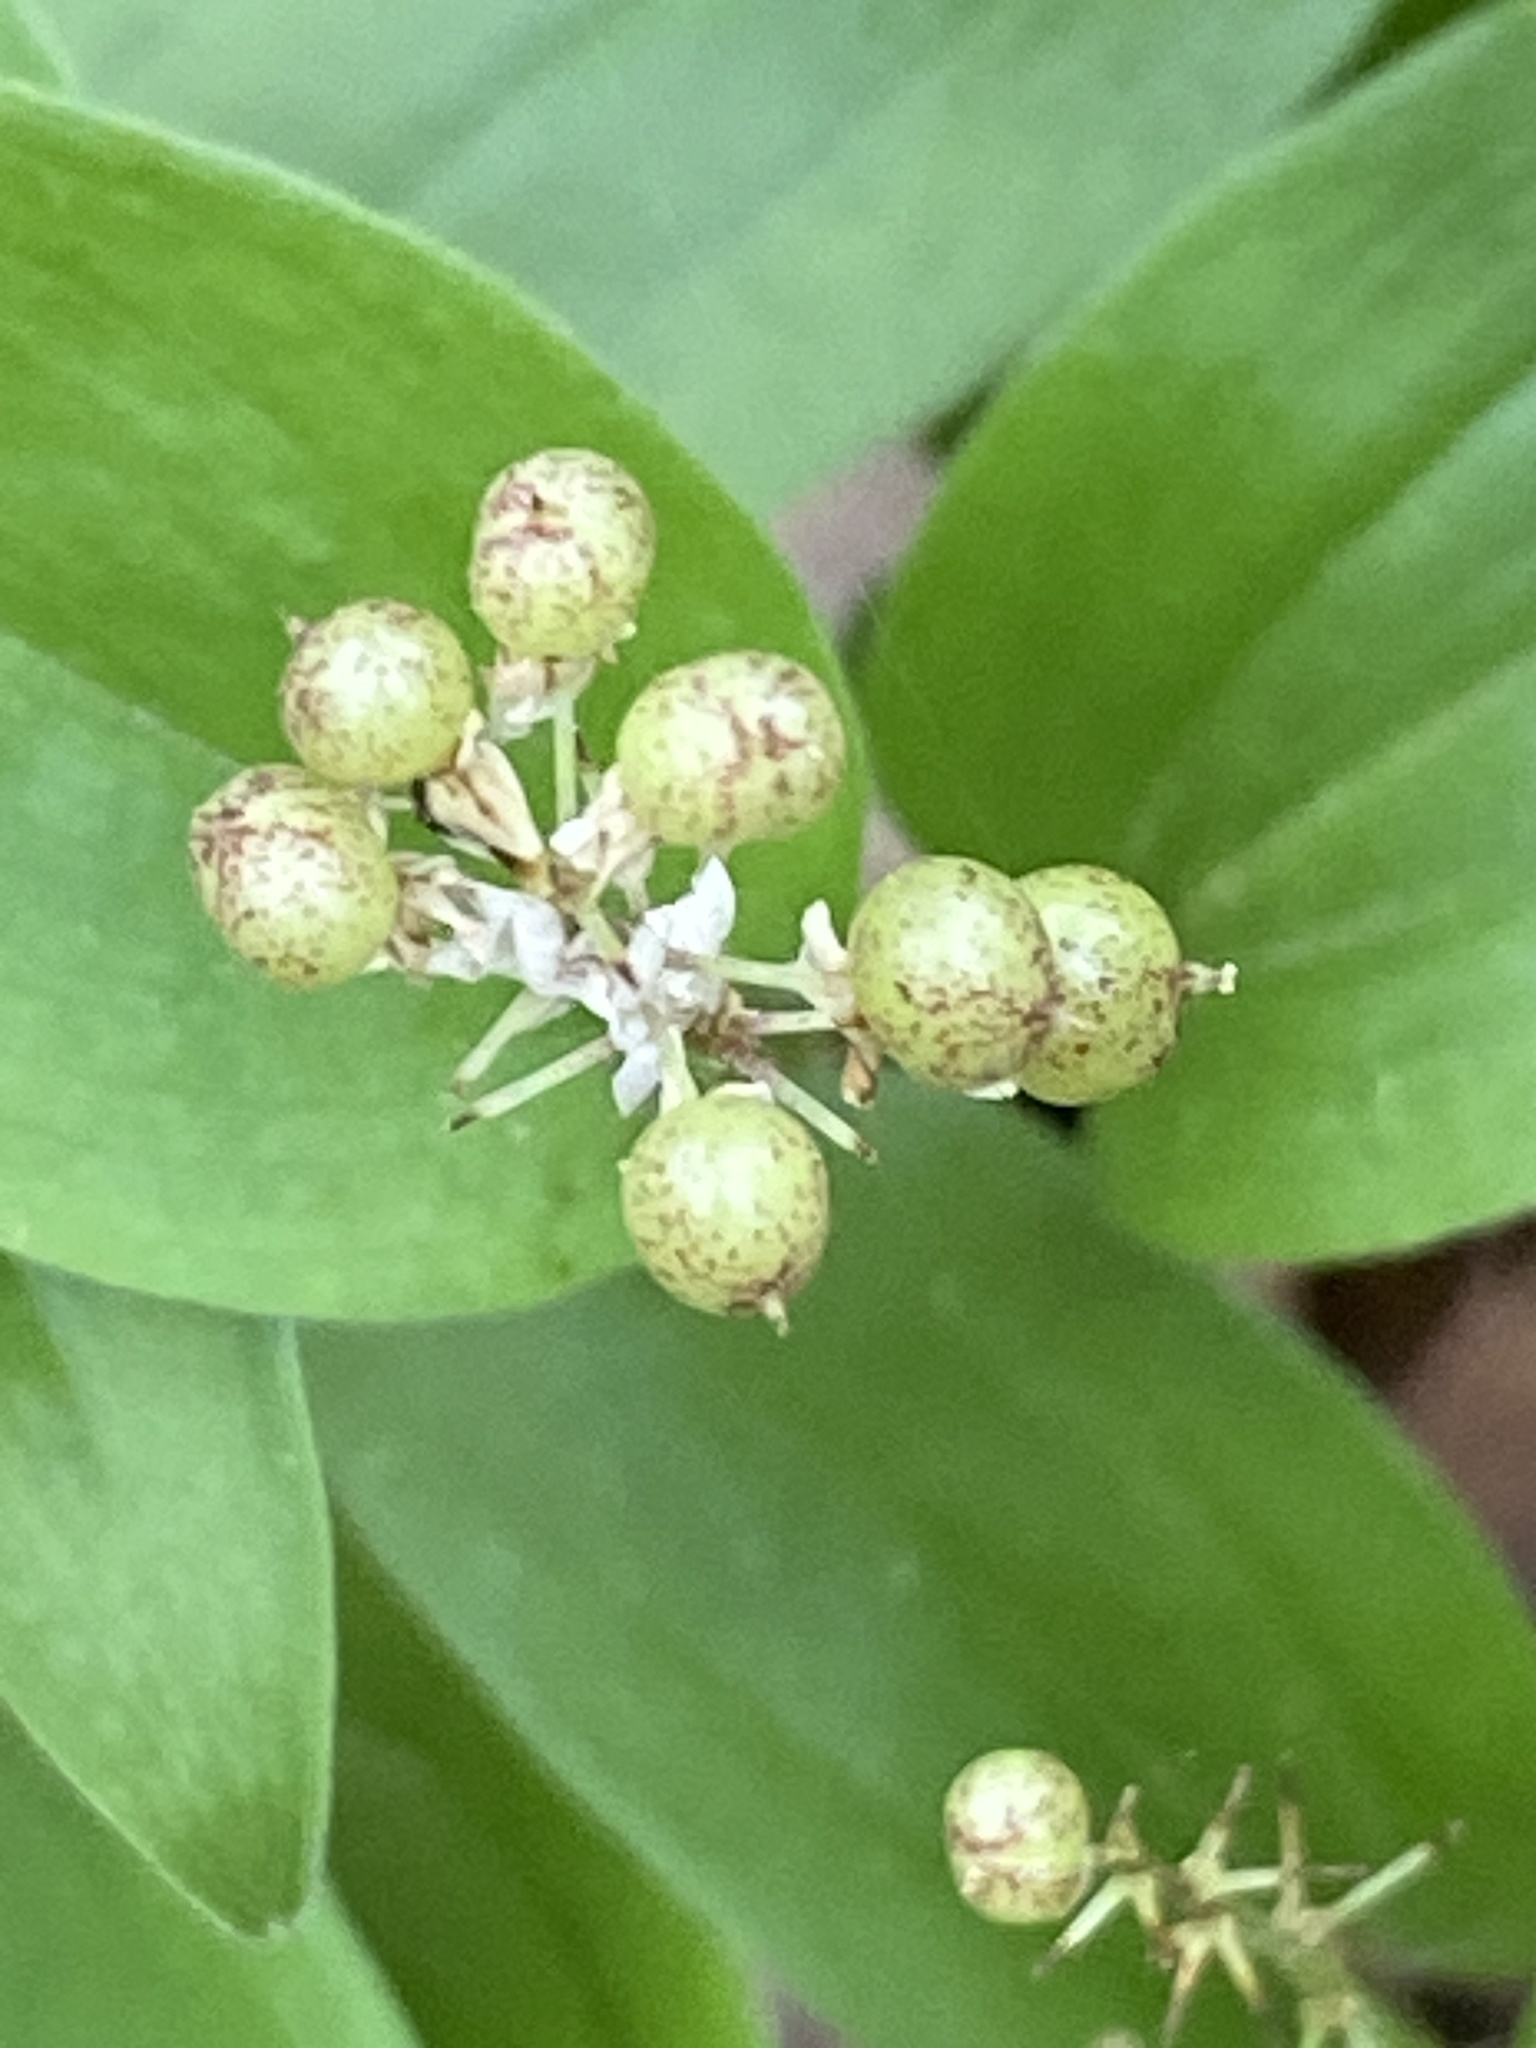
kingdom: Plantae
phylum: Tracheophyta
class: Liliopsida
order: Asparagales
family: Asparagaceae
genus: Maianthemum
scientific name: Maianthemum canadense
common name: False lily-of-the-valley
